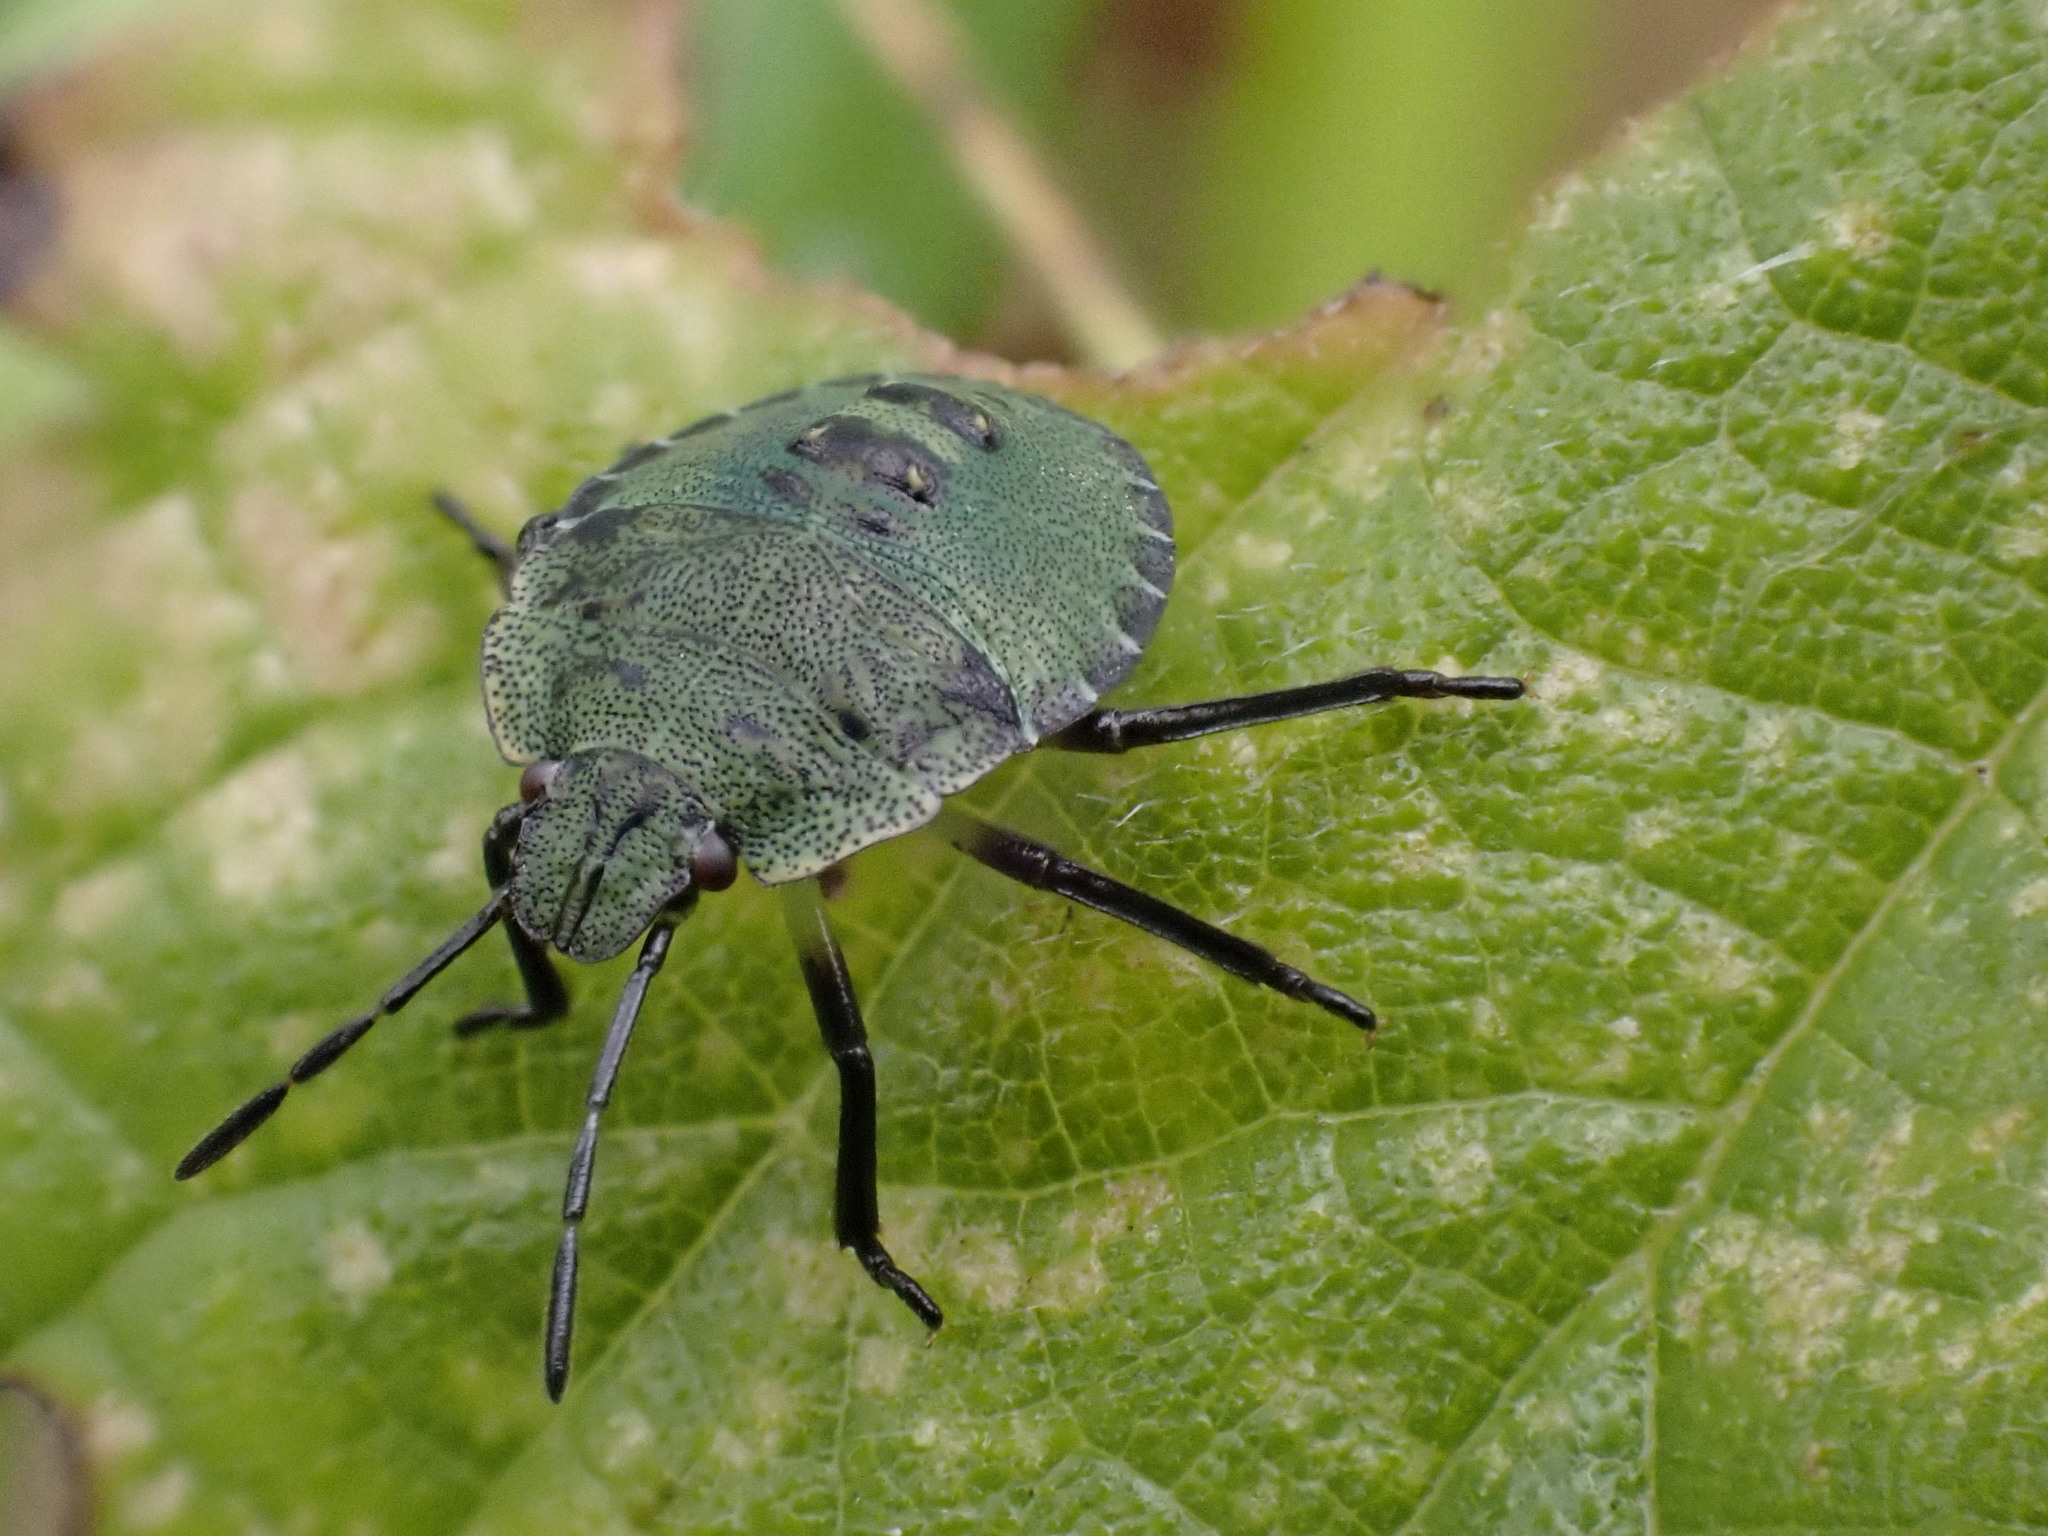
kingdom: Animalia
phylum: Arthropoda
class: Insecta
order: Hemiptera
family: Pentatomidae
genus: Palomena
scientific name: Palomena prasina
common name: Green shieldbug
